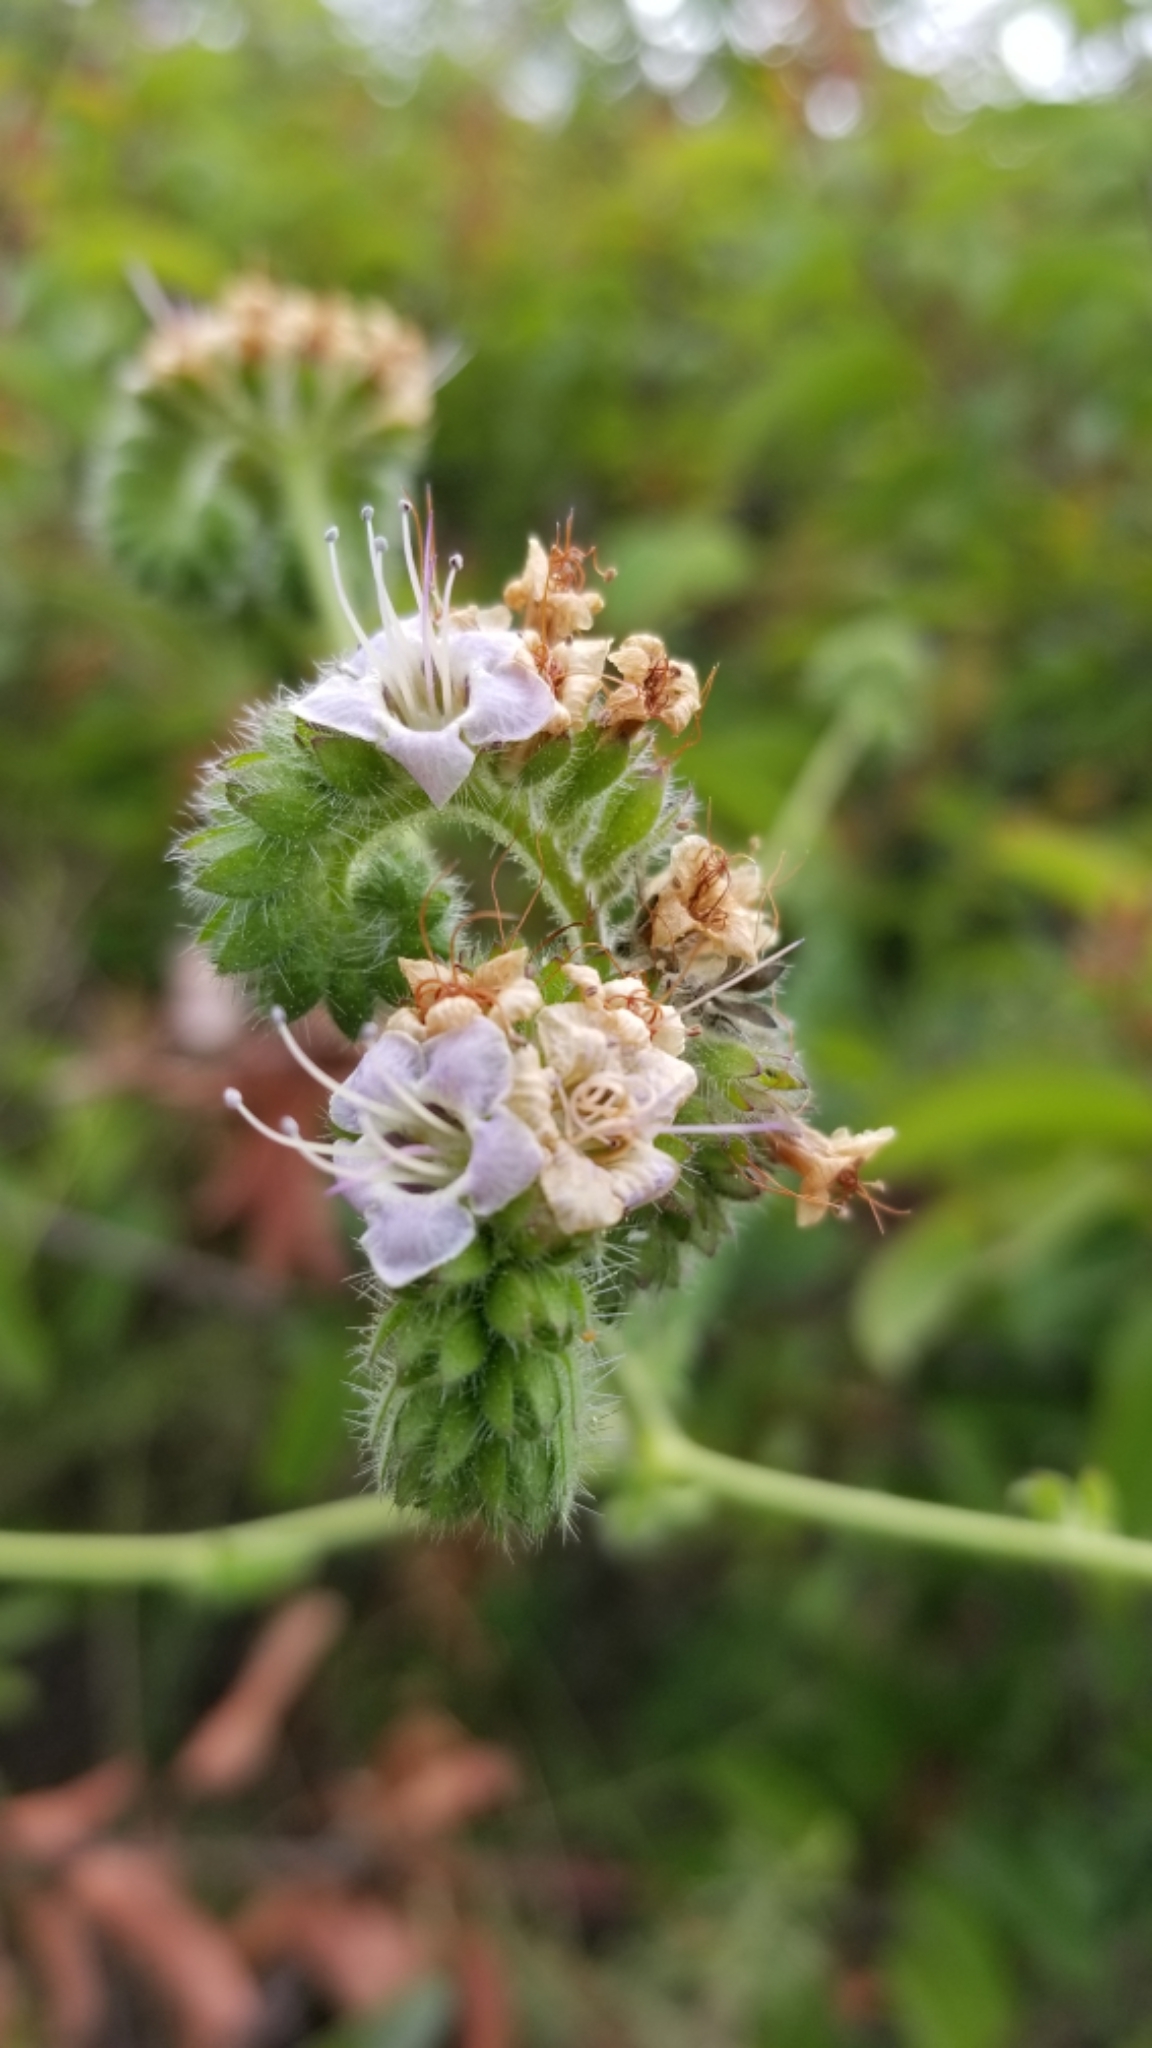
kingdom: Plantae
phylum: Tracheophyta
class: Magnoliopsida
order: Boraginales
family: Hydrophyllaceae
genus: Phacelia
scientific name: Phacelia ramosissima
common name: Branching phacelia
